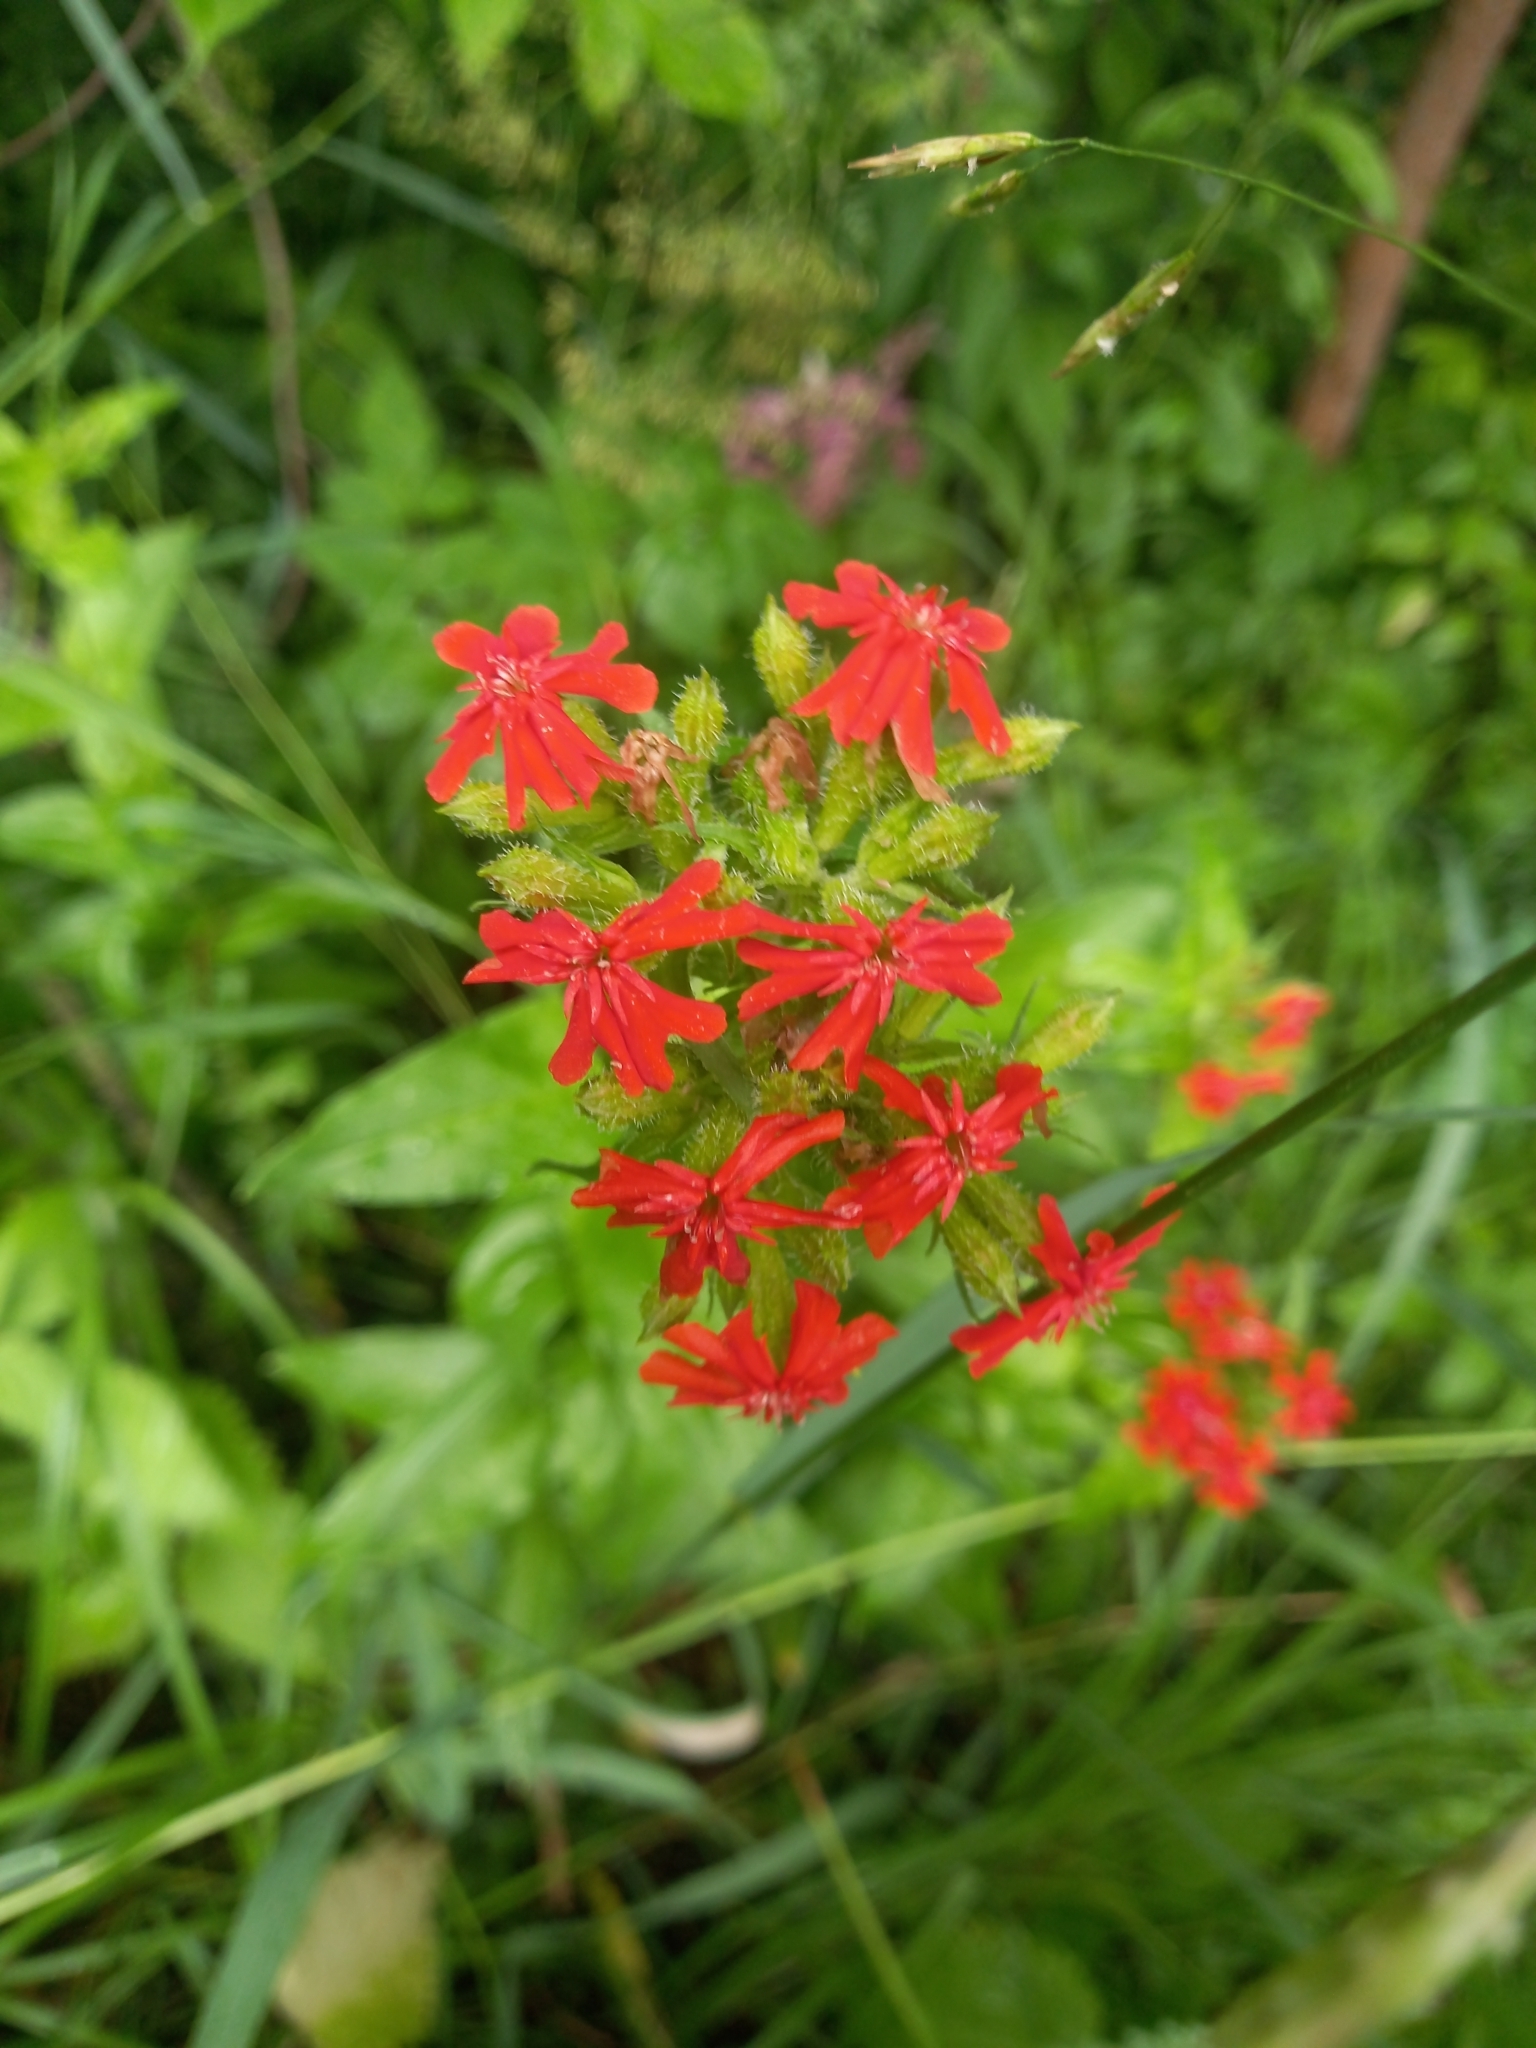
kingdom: Plantae
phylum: Tracheophyta
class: Magnoliopsida
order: Caryophyllales
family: Caryophyllaceae
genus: Silene
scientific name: Silene chalcedonica
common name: Maltese-cross
